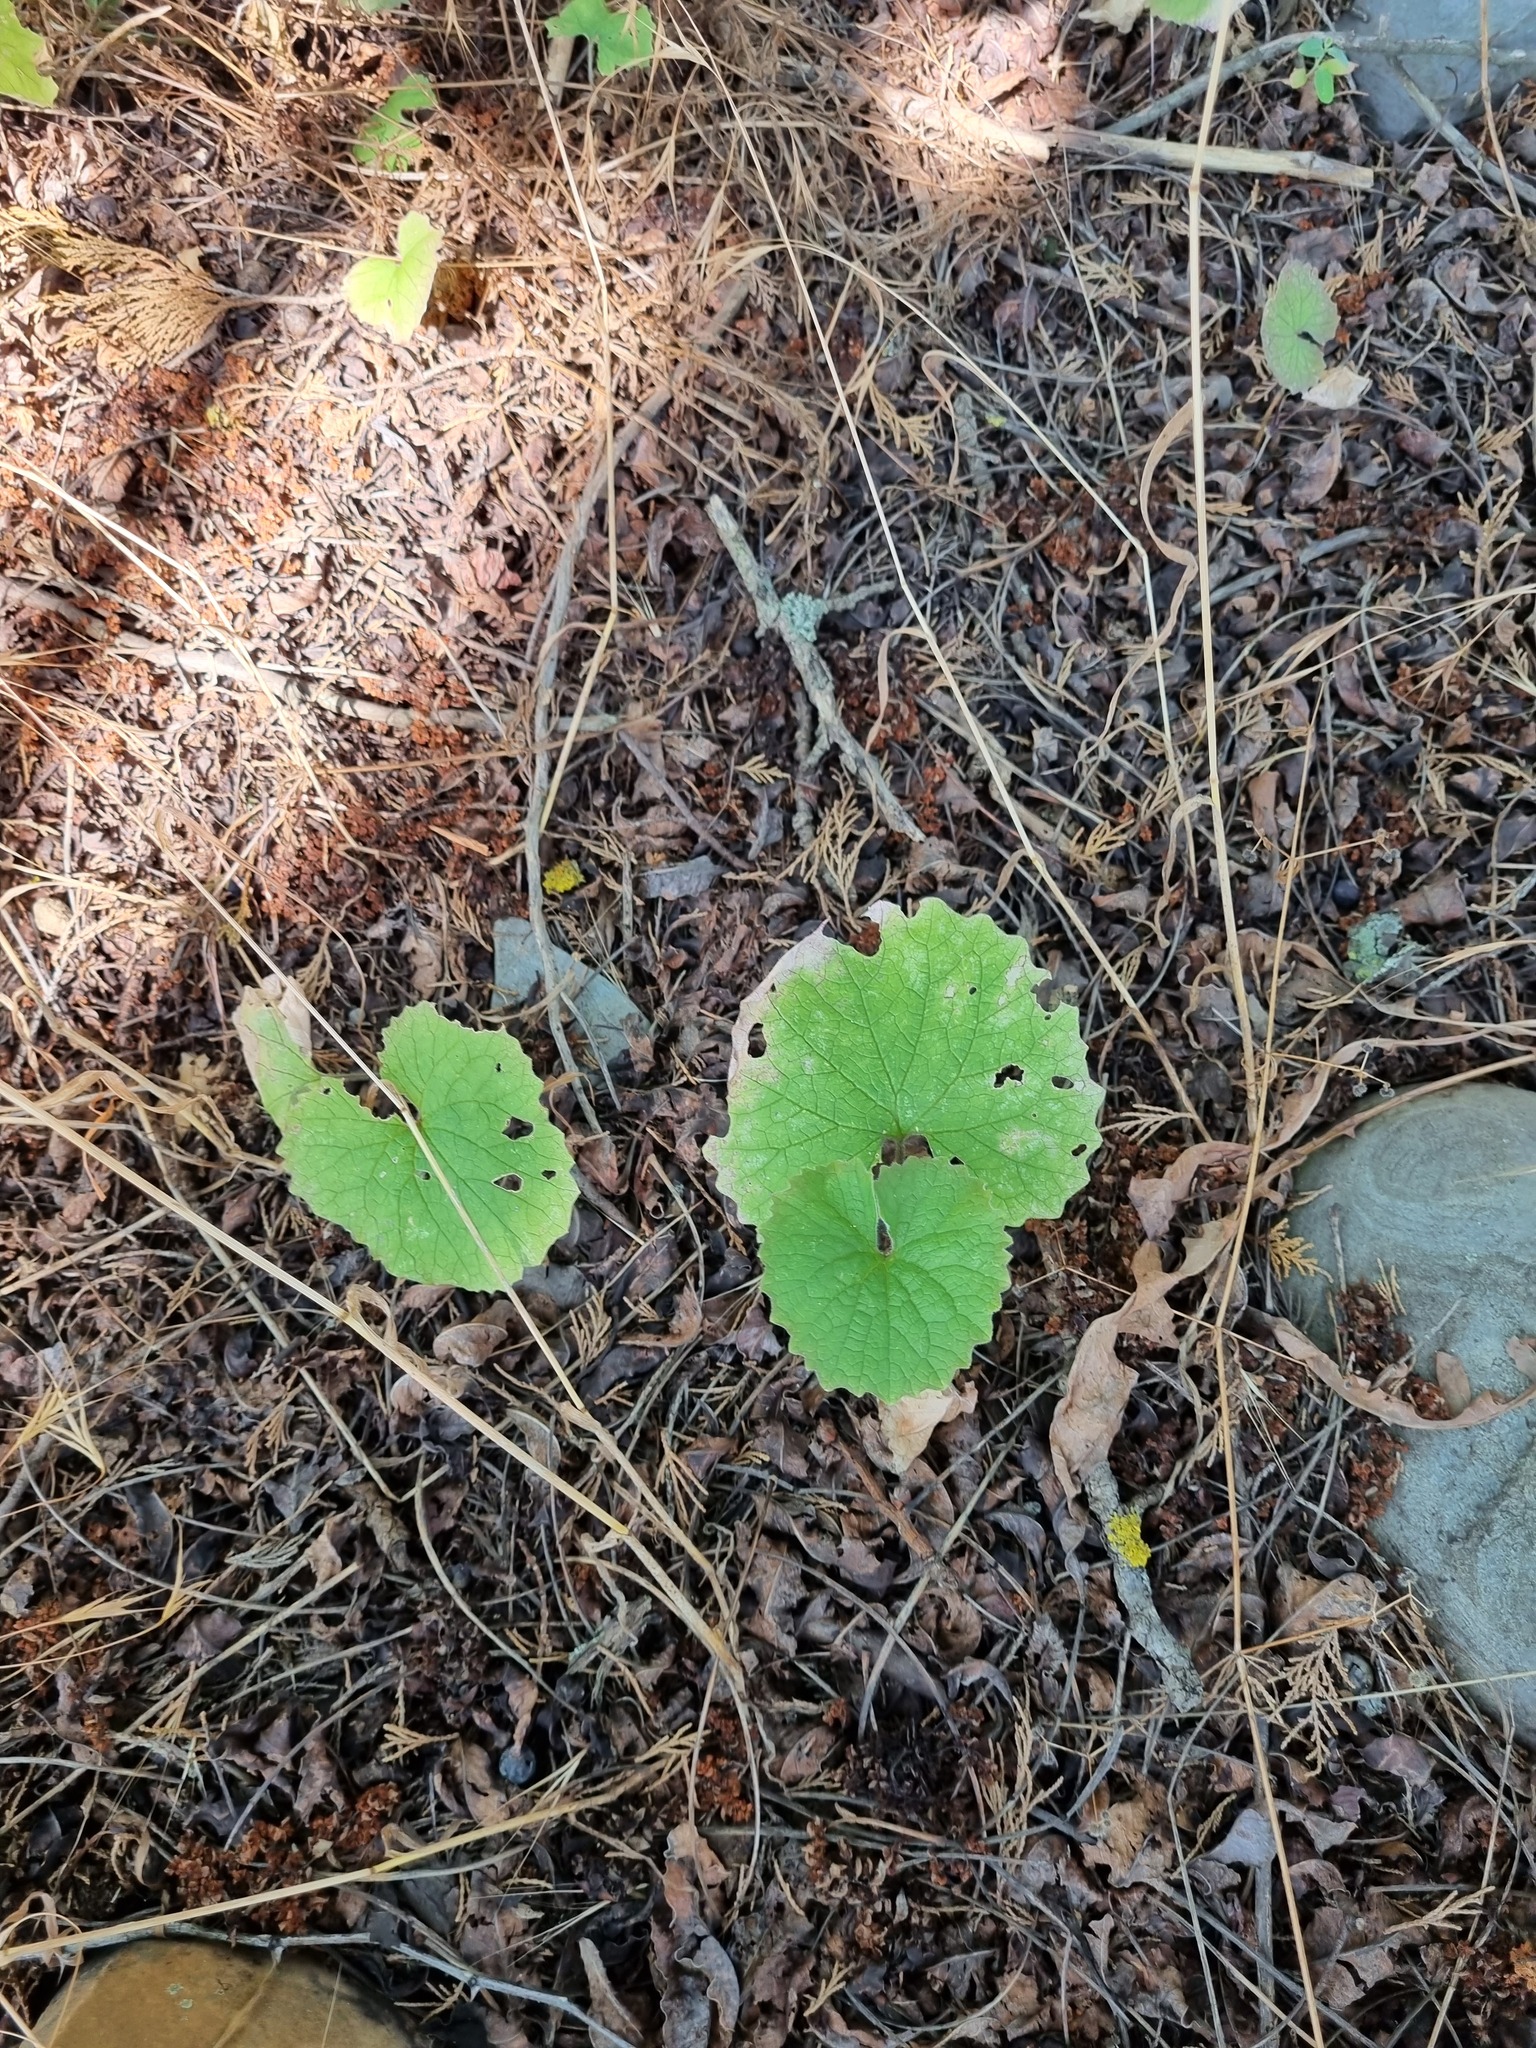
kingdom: Plantae
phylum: Tracheophyta
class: Magnoliopsida
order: Brassicales
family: Brassicaceae
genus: Alliaria
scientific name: Alliaria petiolata
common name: Garlic mustard
